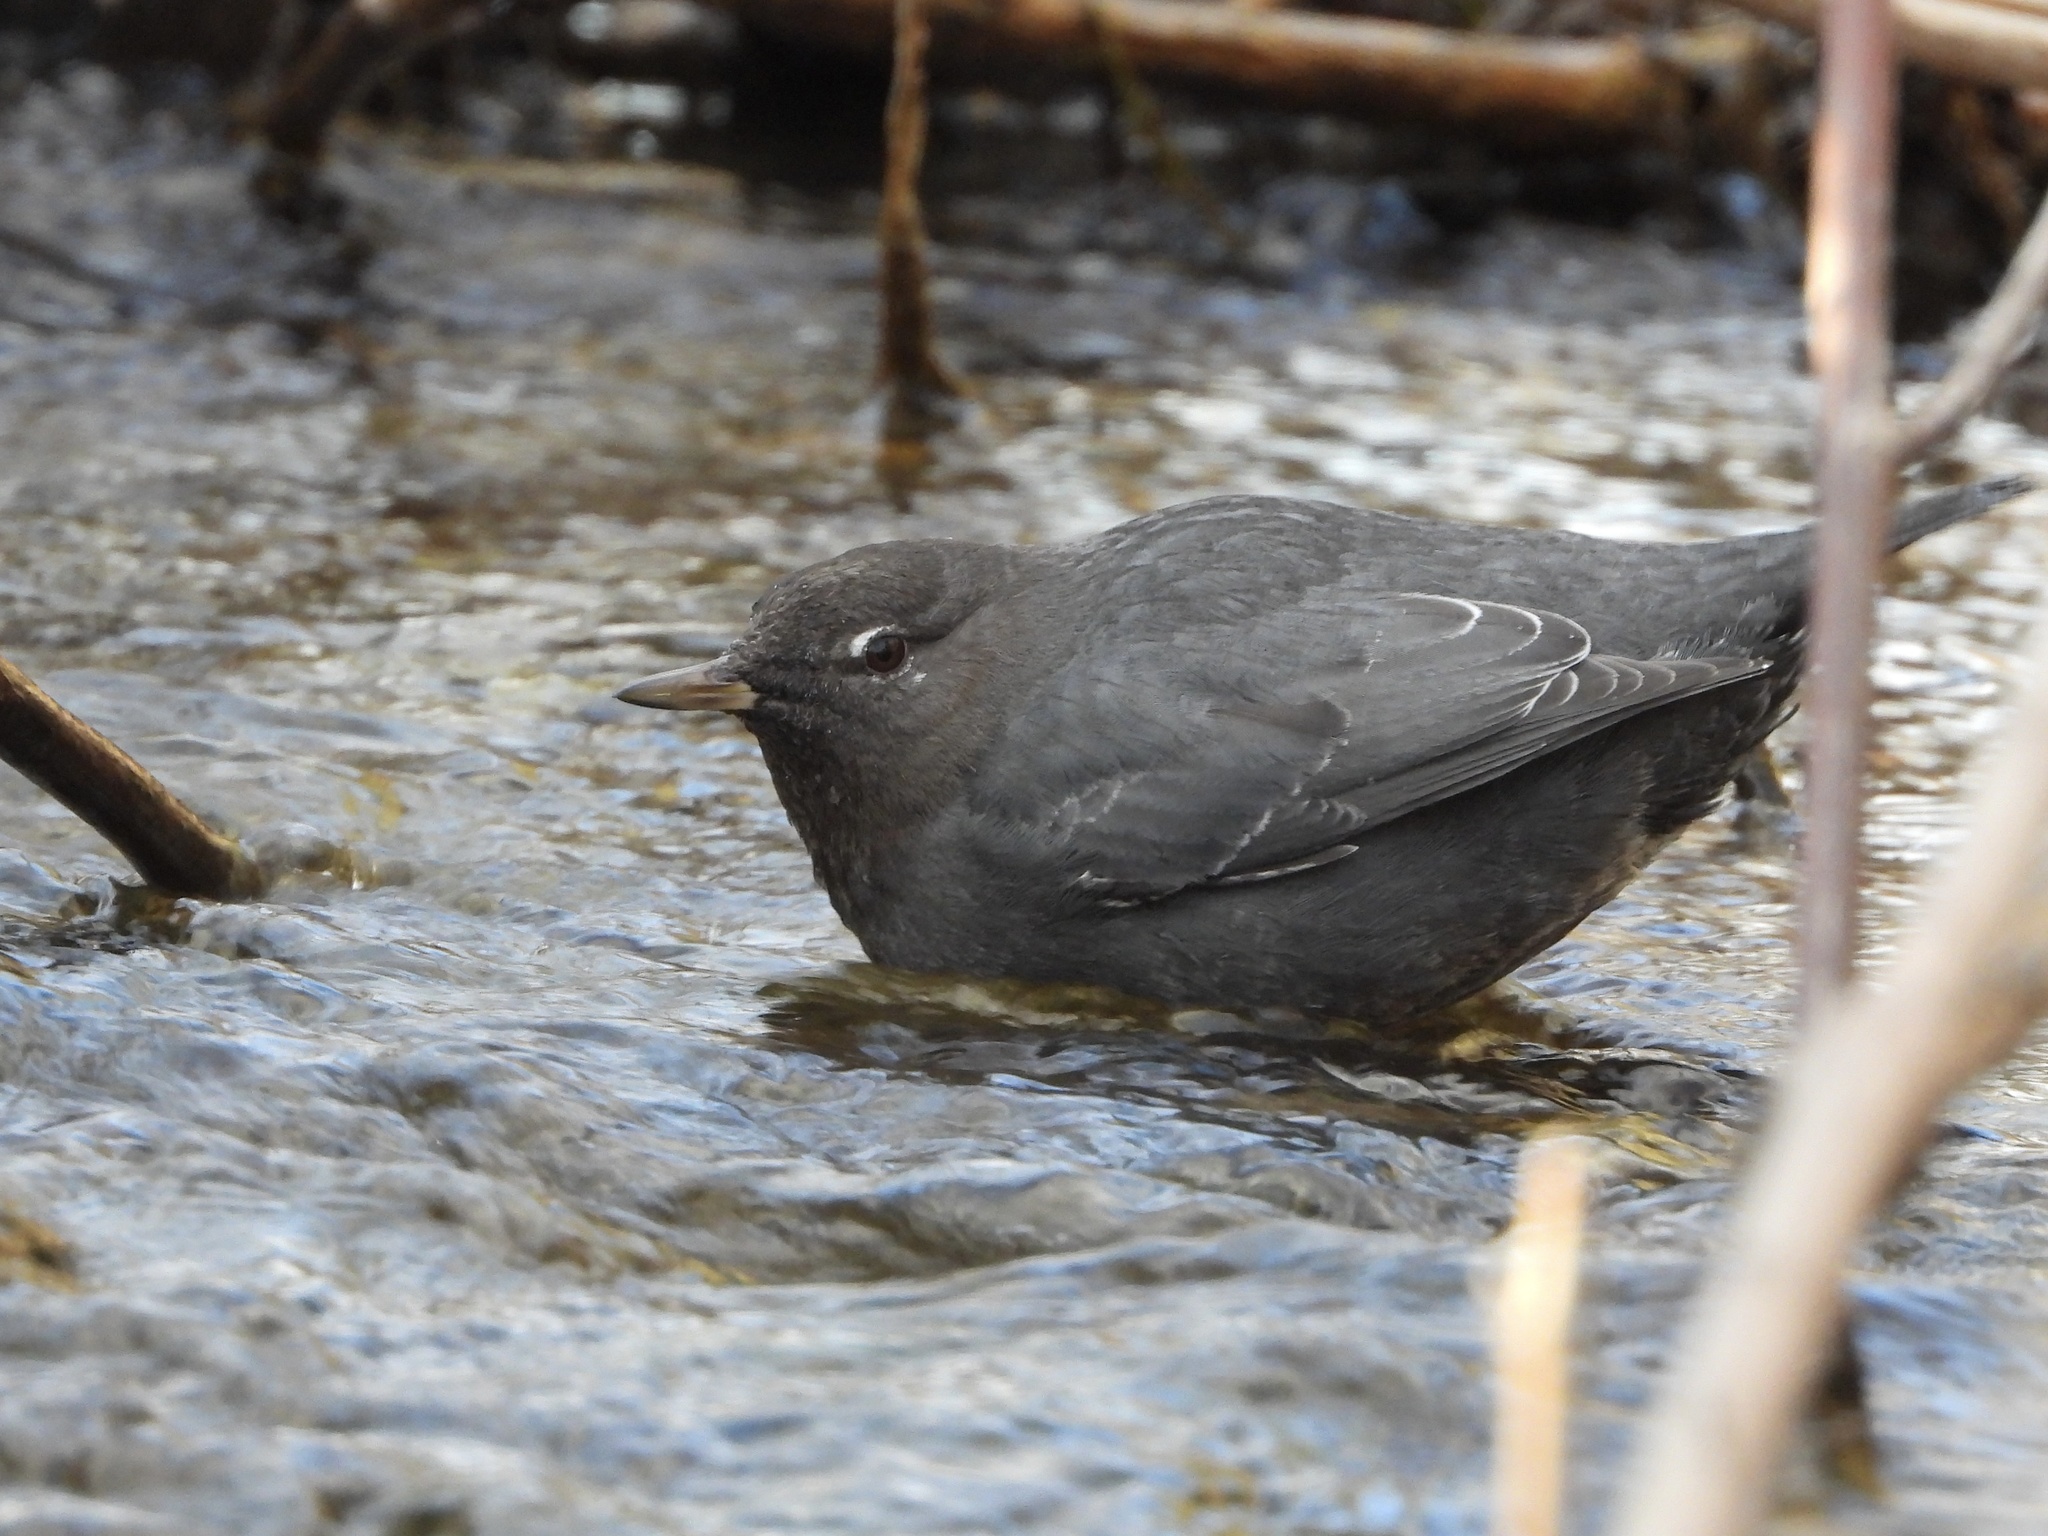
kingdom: Animalia
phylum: Chordata
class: Aves
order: Passeriformes
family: Cinclidae
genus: Cinclus
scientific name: Cinclus mexicanus
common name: American dipper
